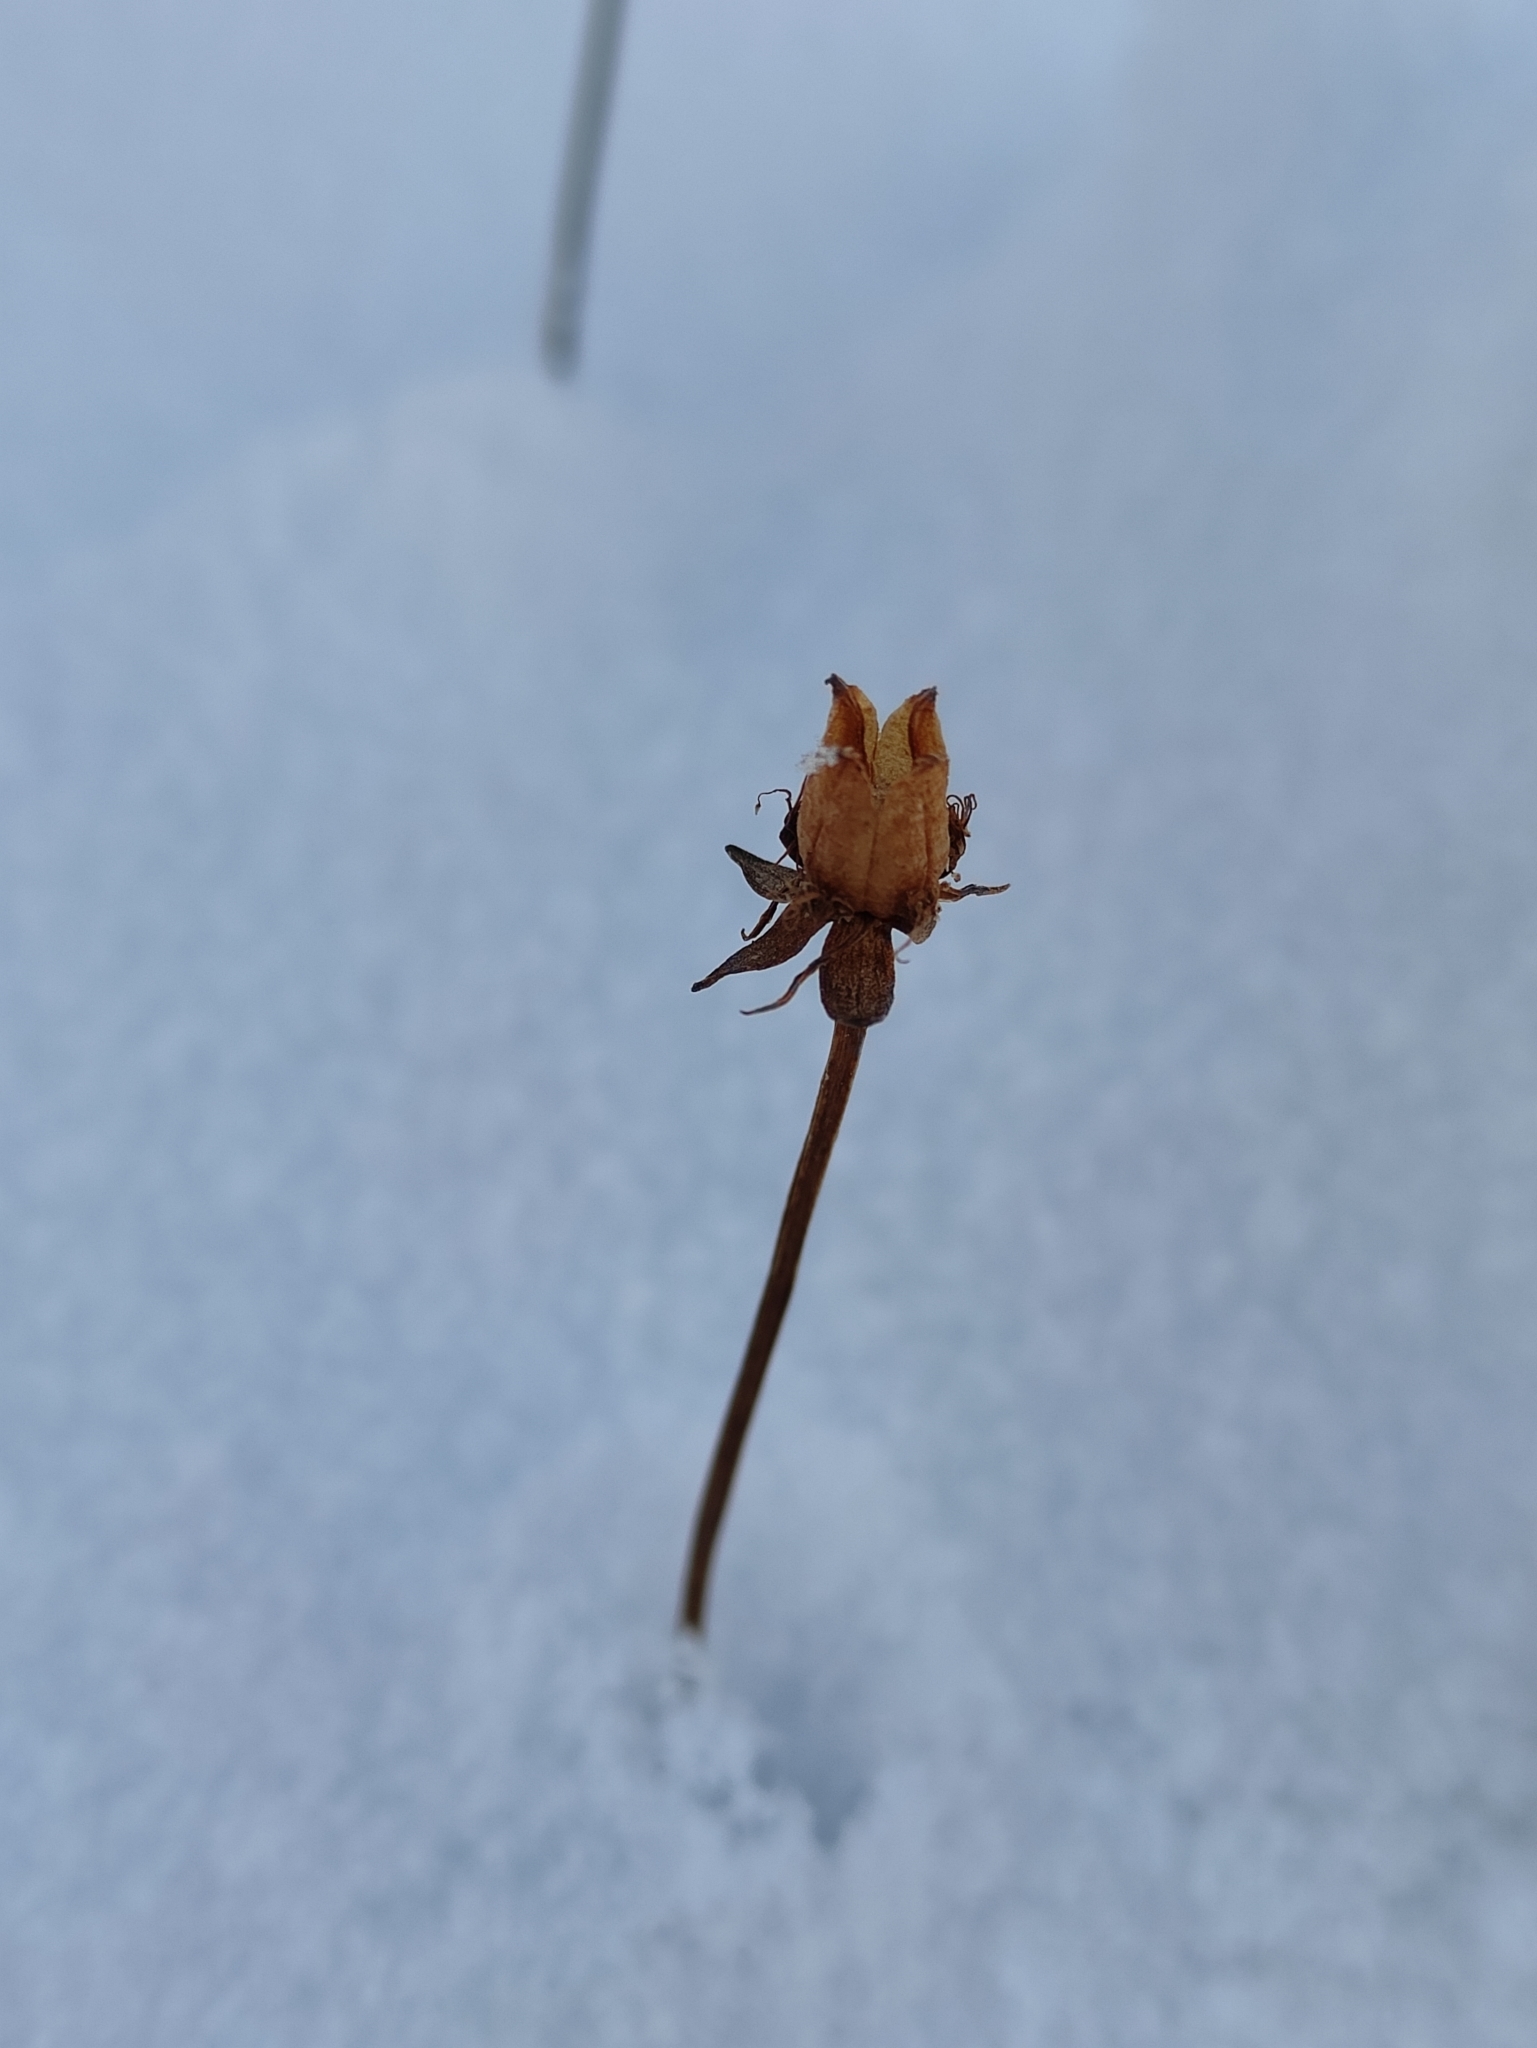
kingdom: Plantae
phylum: Tracheophyta
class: Magnoliopsida
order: Celastrales
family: Parnassiaceae
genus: Parnassia
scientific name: Parnassia palustris
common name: Grass-of-parnassus
